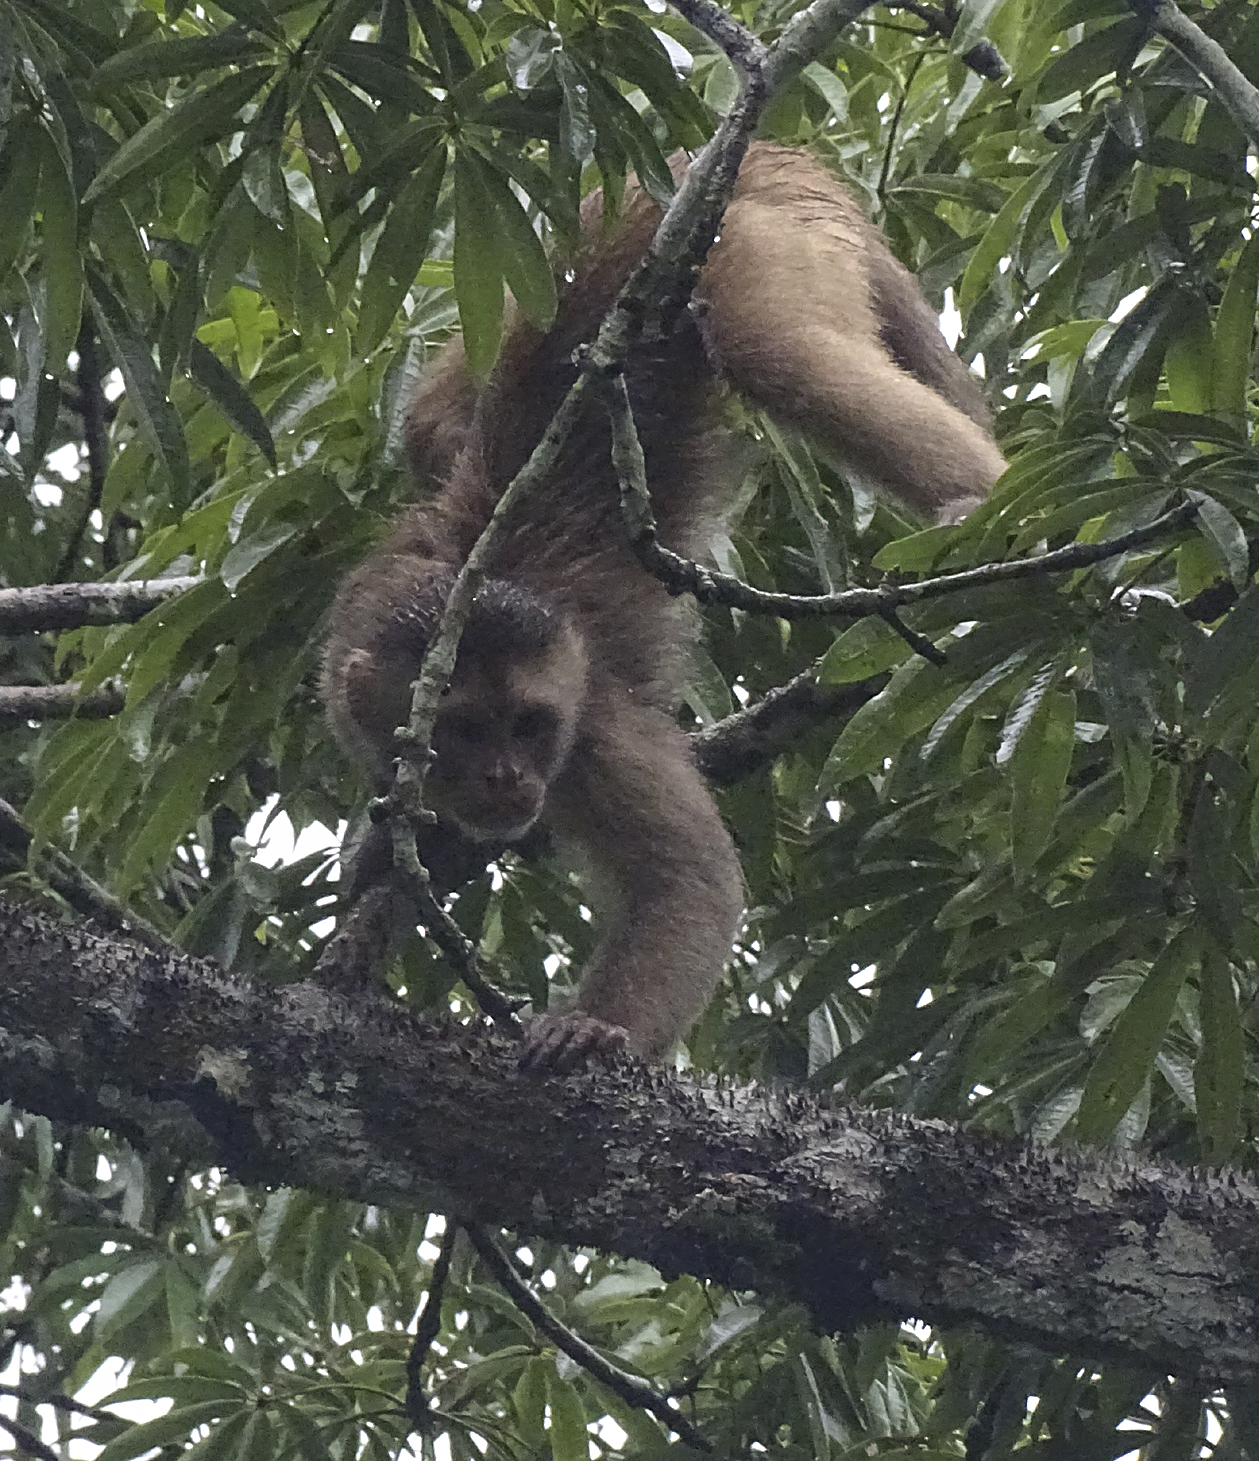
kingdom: Animalia
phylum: Chordata
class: Mammalia
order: Primates
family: Cebidae
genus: Cebus
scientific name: Cebus yuracus
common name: Peruvian white-fronted capuchin
